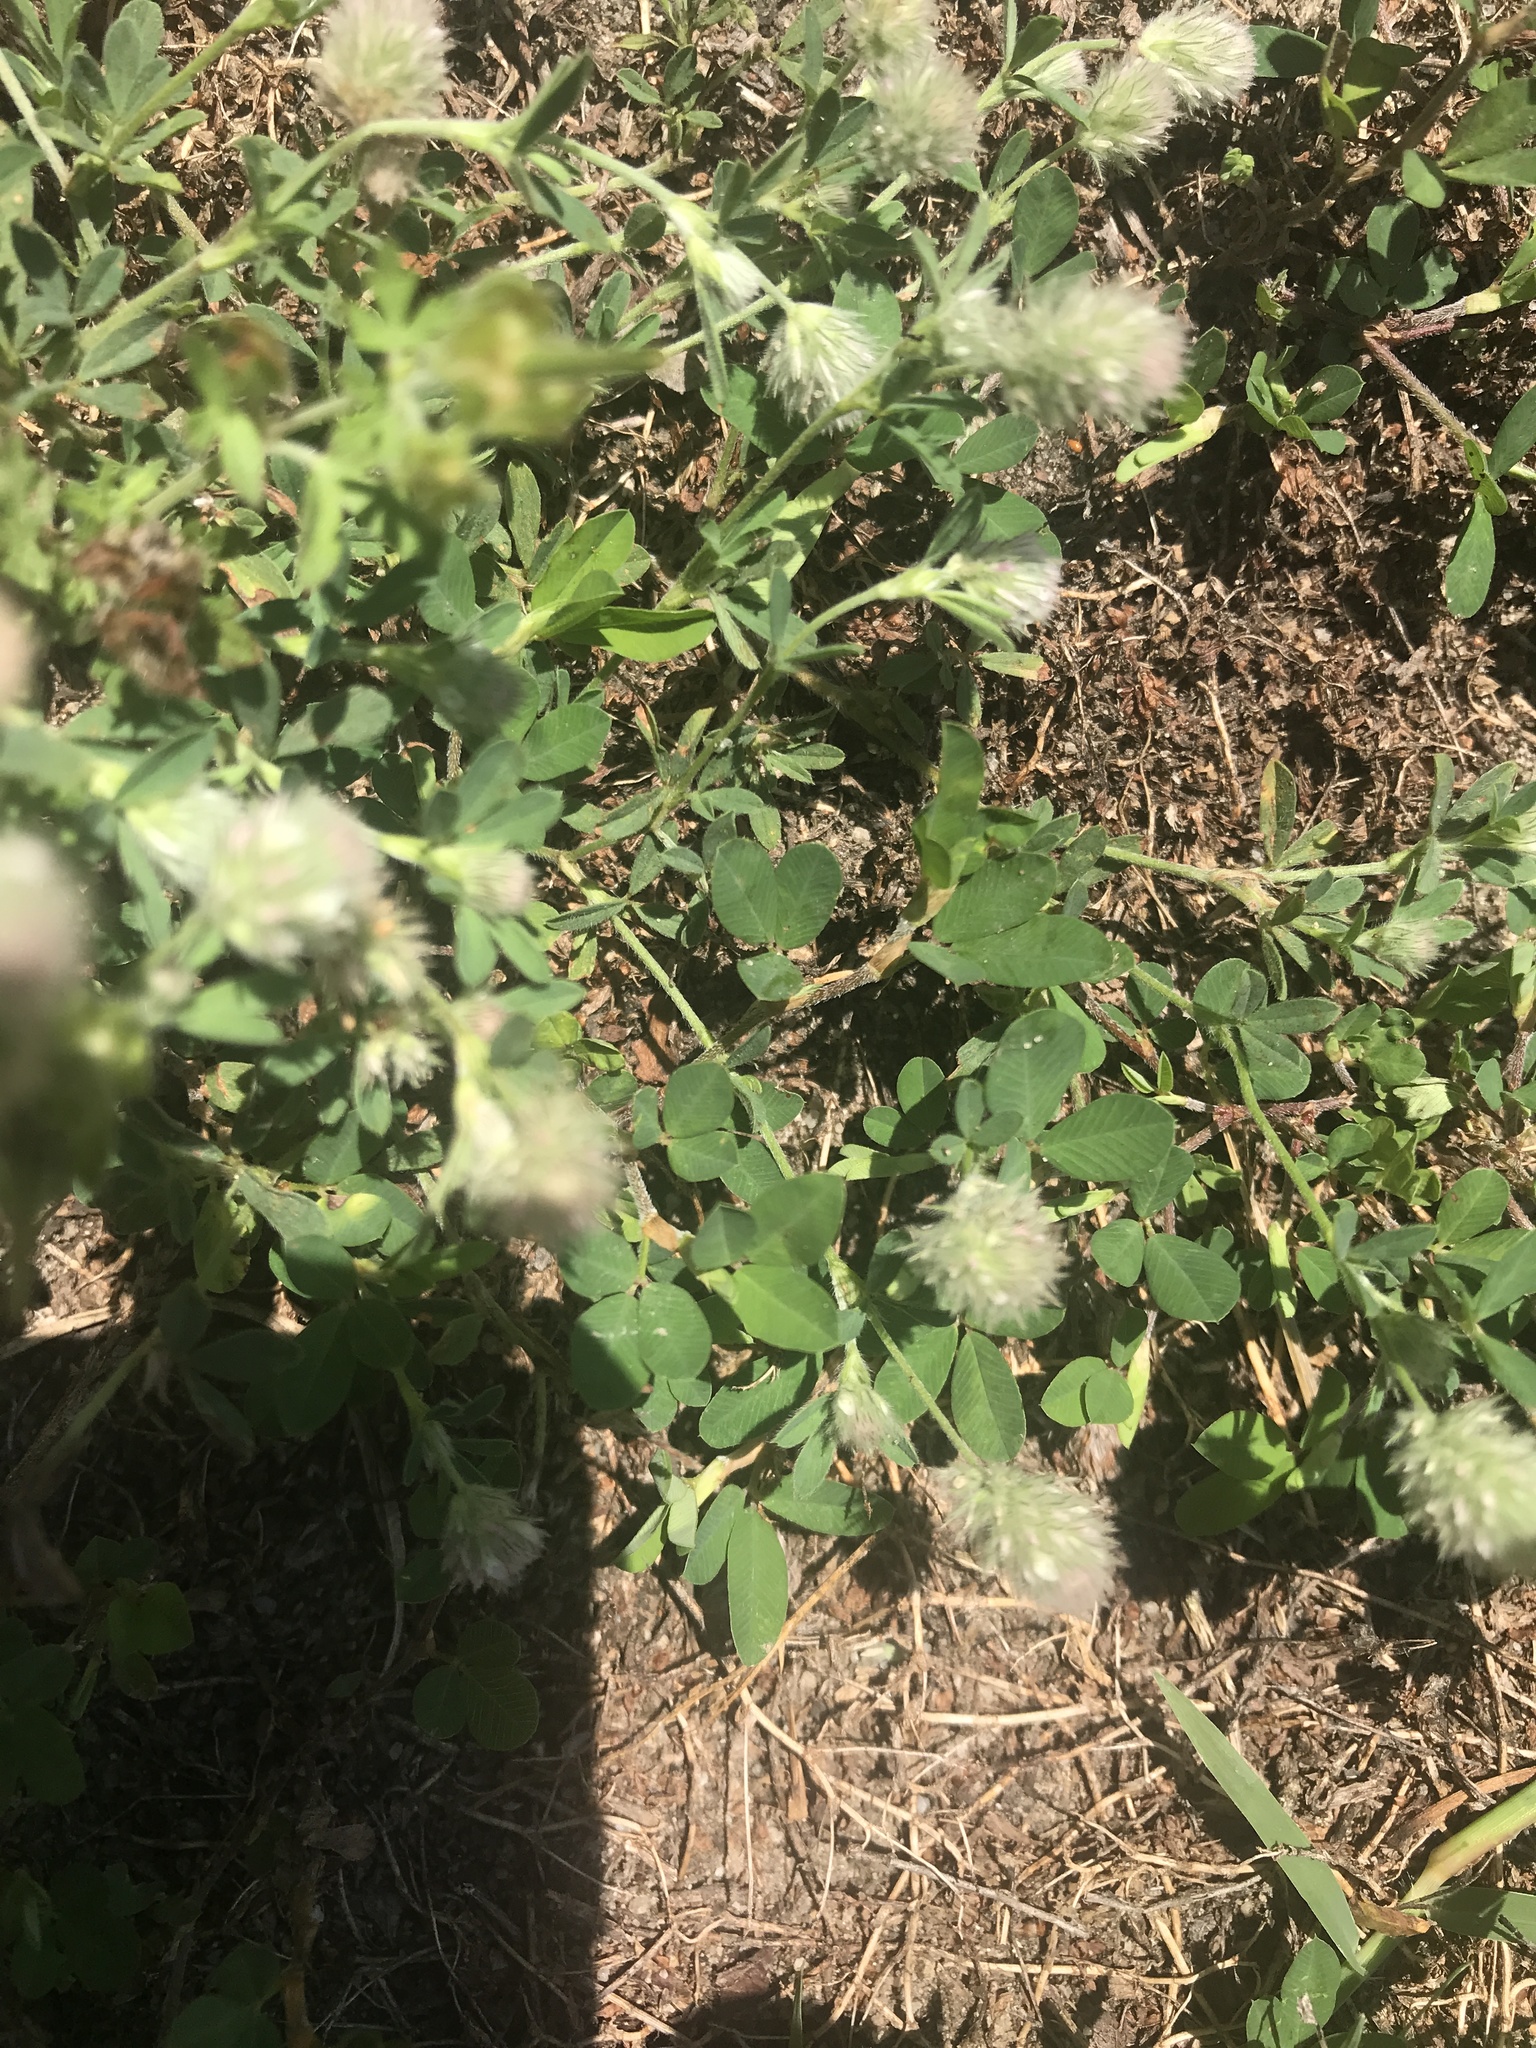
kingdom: Plantae
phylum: Tracheophyta
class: Magnoliopsida
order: Fabales
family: Fabaceae
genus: Trifolium
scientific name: Trifolium arvense
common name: Hare's-foot clover
